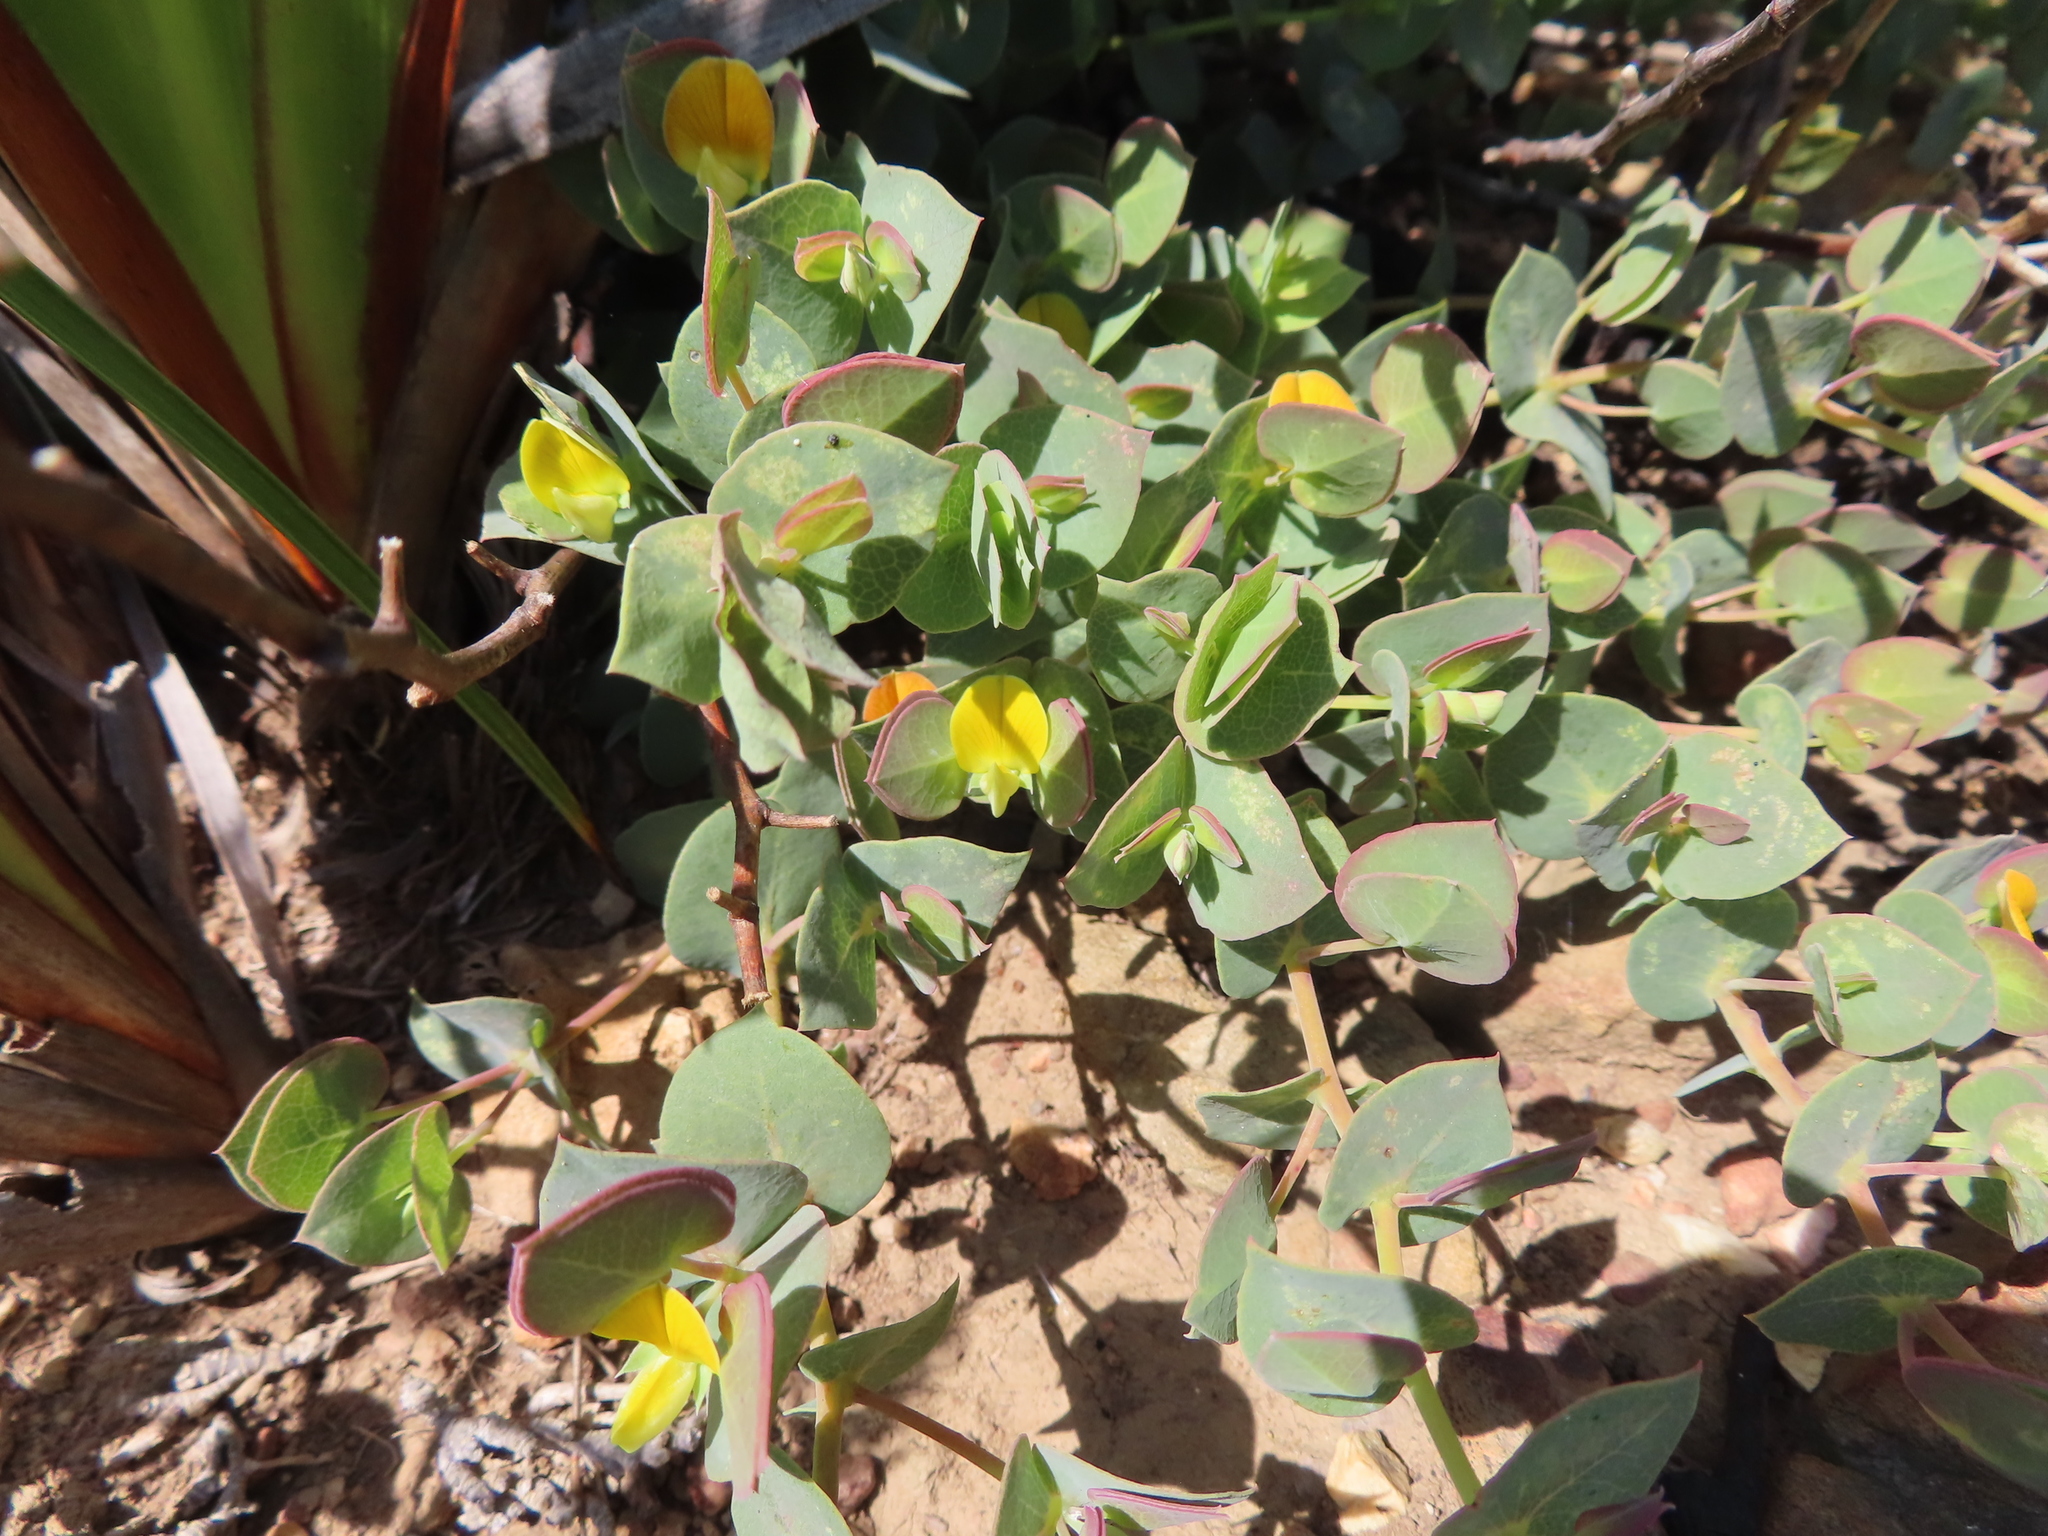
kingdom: Plantae
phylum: Tracheophyta
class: Magnoliopsida
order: Fabales
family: Fabaceae
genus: Rafnia
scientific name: Rafnia acuminata
